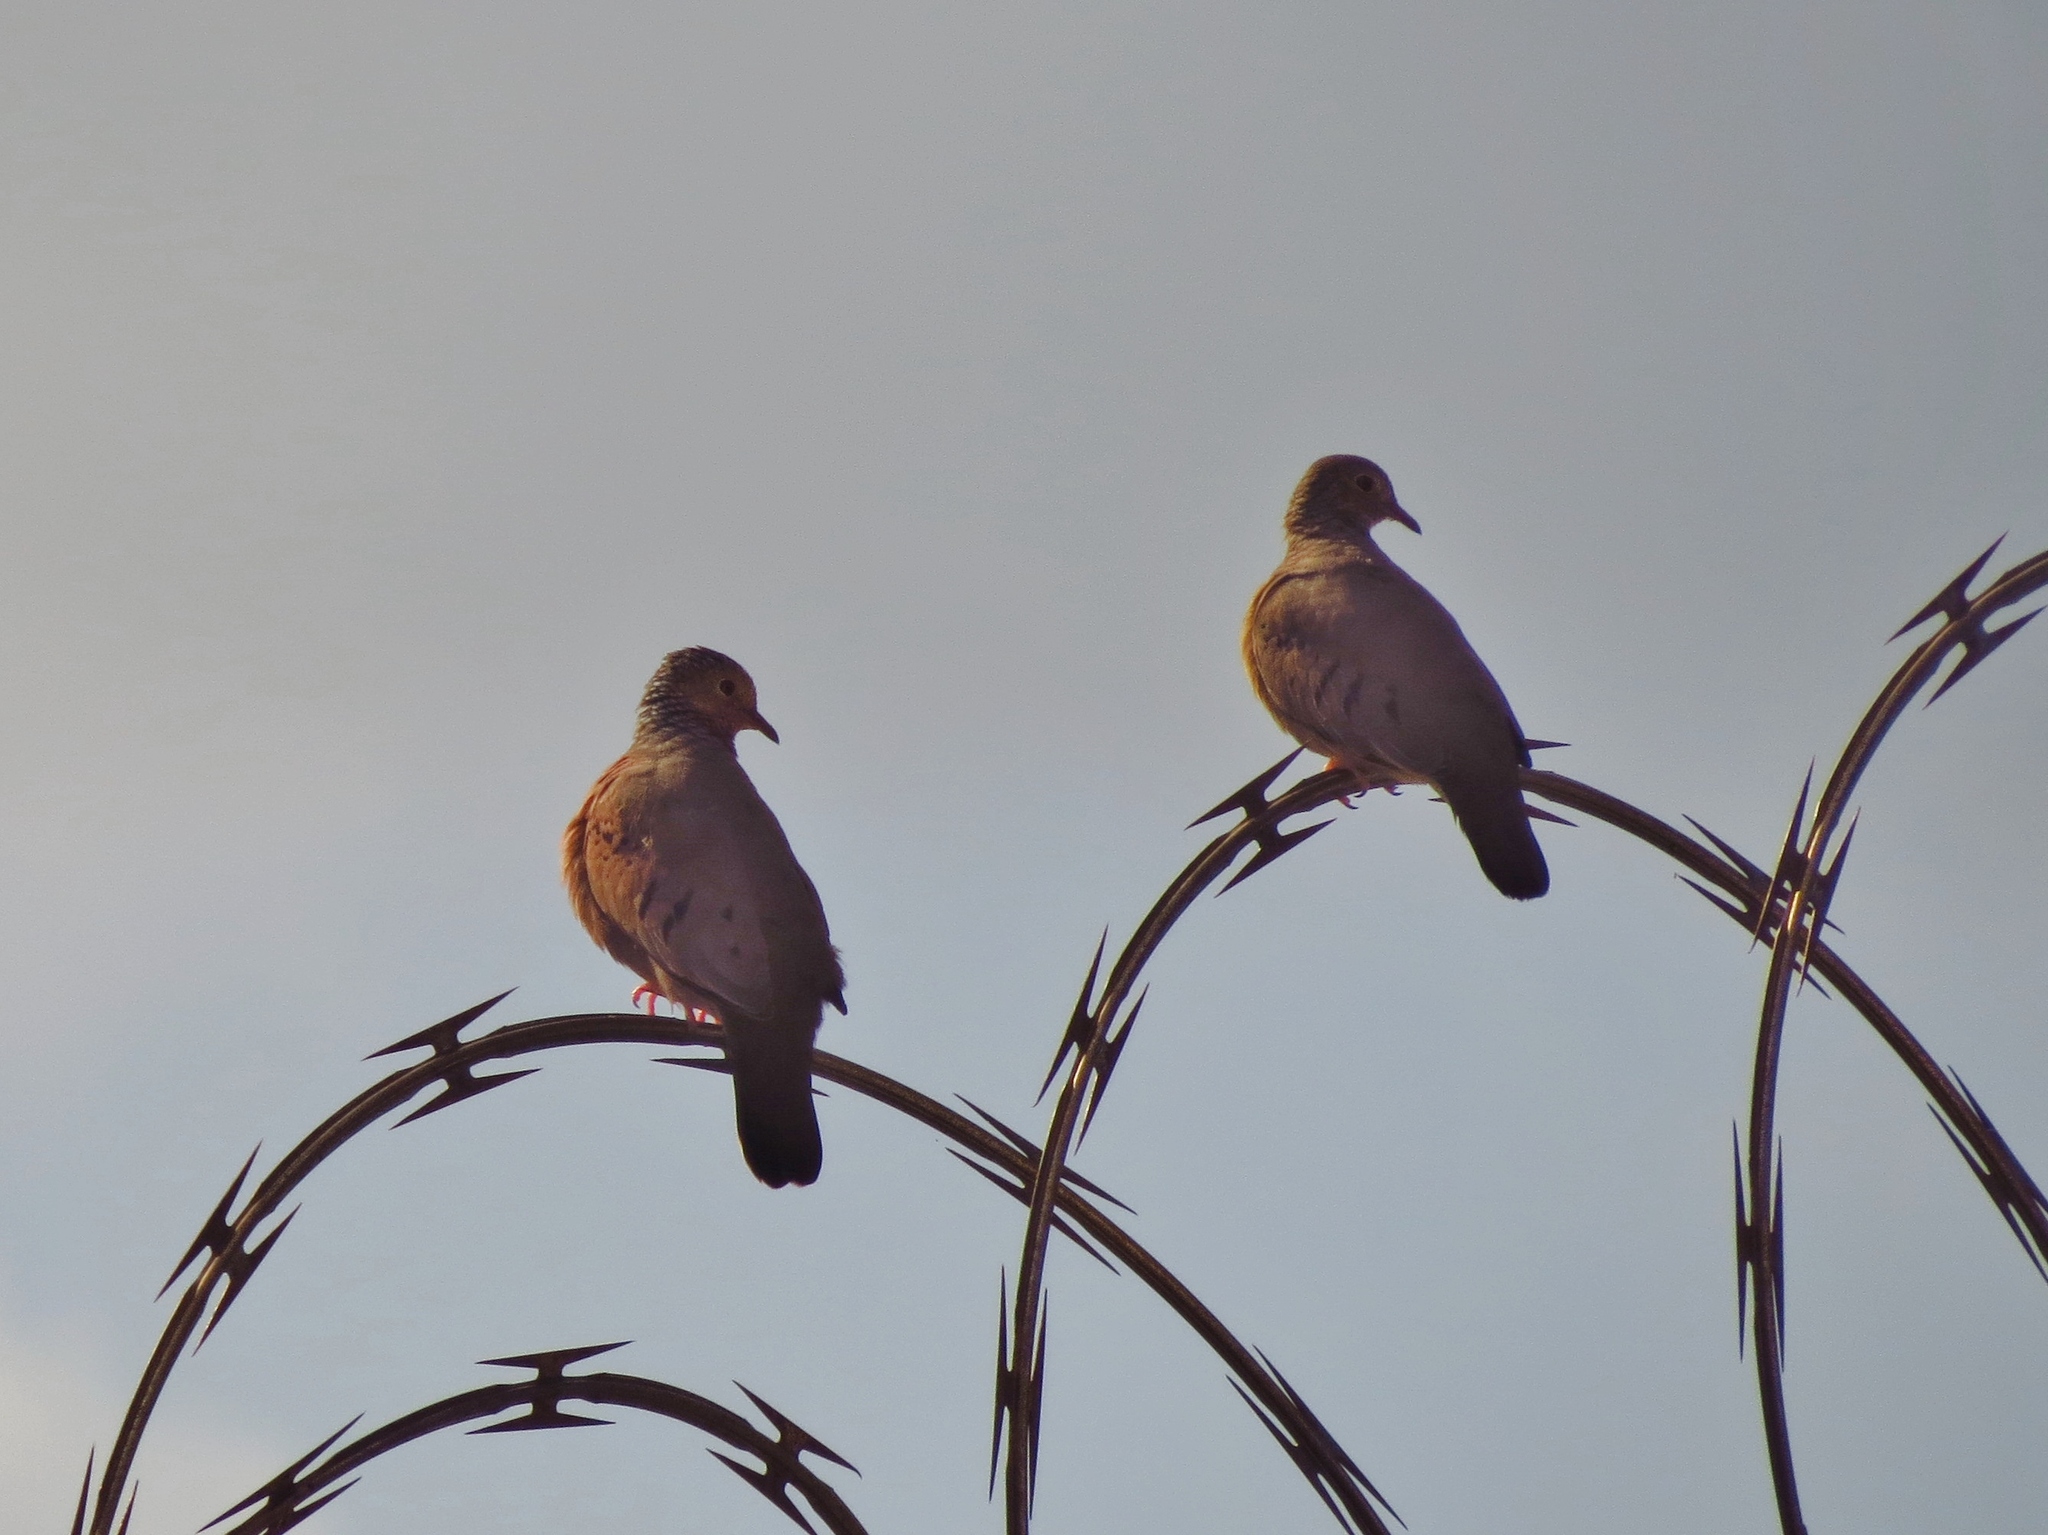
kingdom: Animalia
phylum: Chordata
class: Aves
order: Columbiformes
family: Columbidae
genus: Columbina
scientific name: Columbina passerina
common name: Common ground-dove
